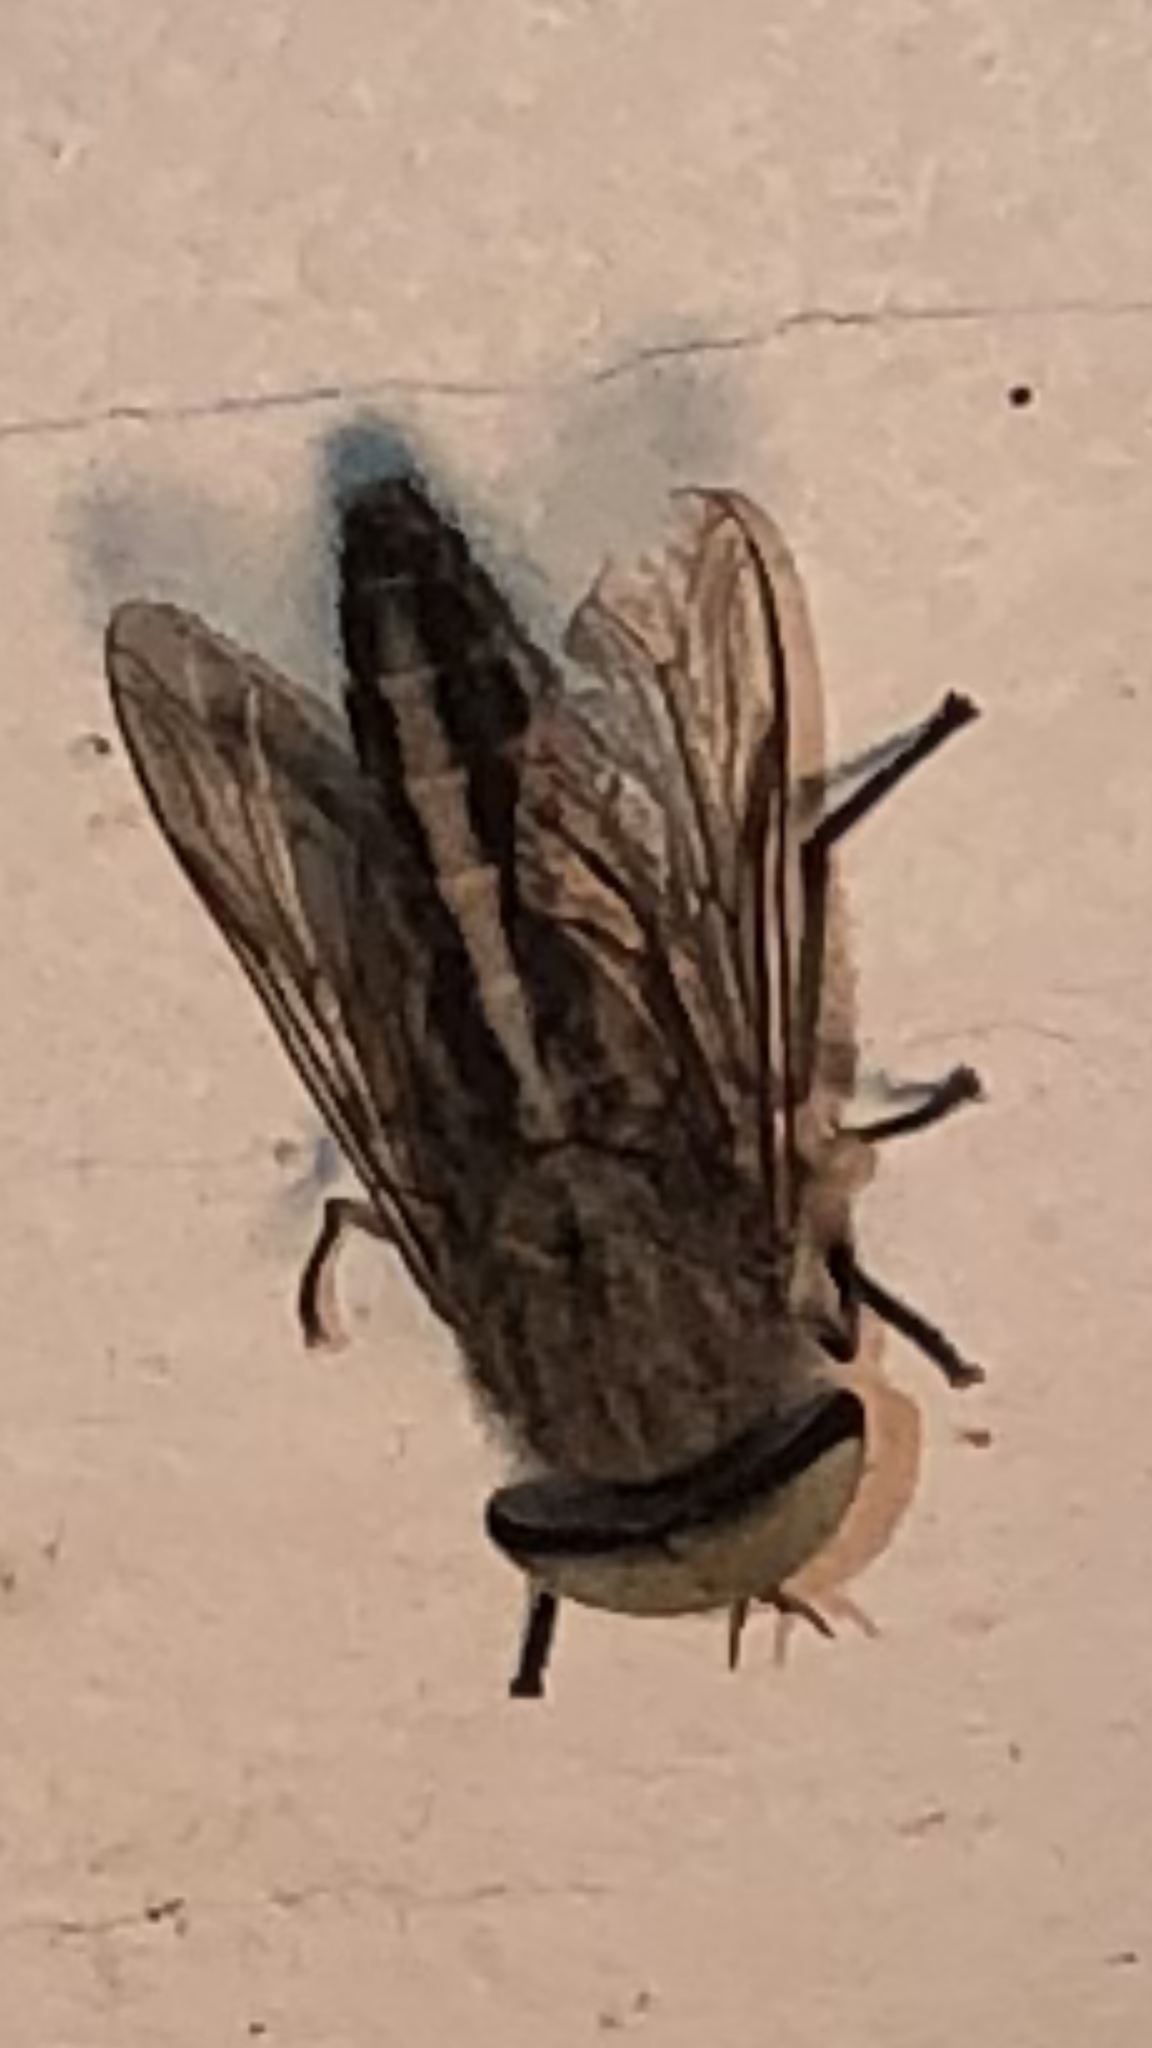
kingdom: Animalia
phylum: Arthropoda
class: Insecta
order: Diptera
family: Tabanidae
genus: Tabanus
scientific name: Tabanus lineola
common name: Striped horse fly
